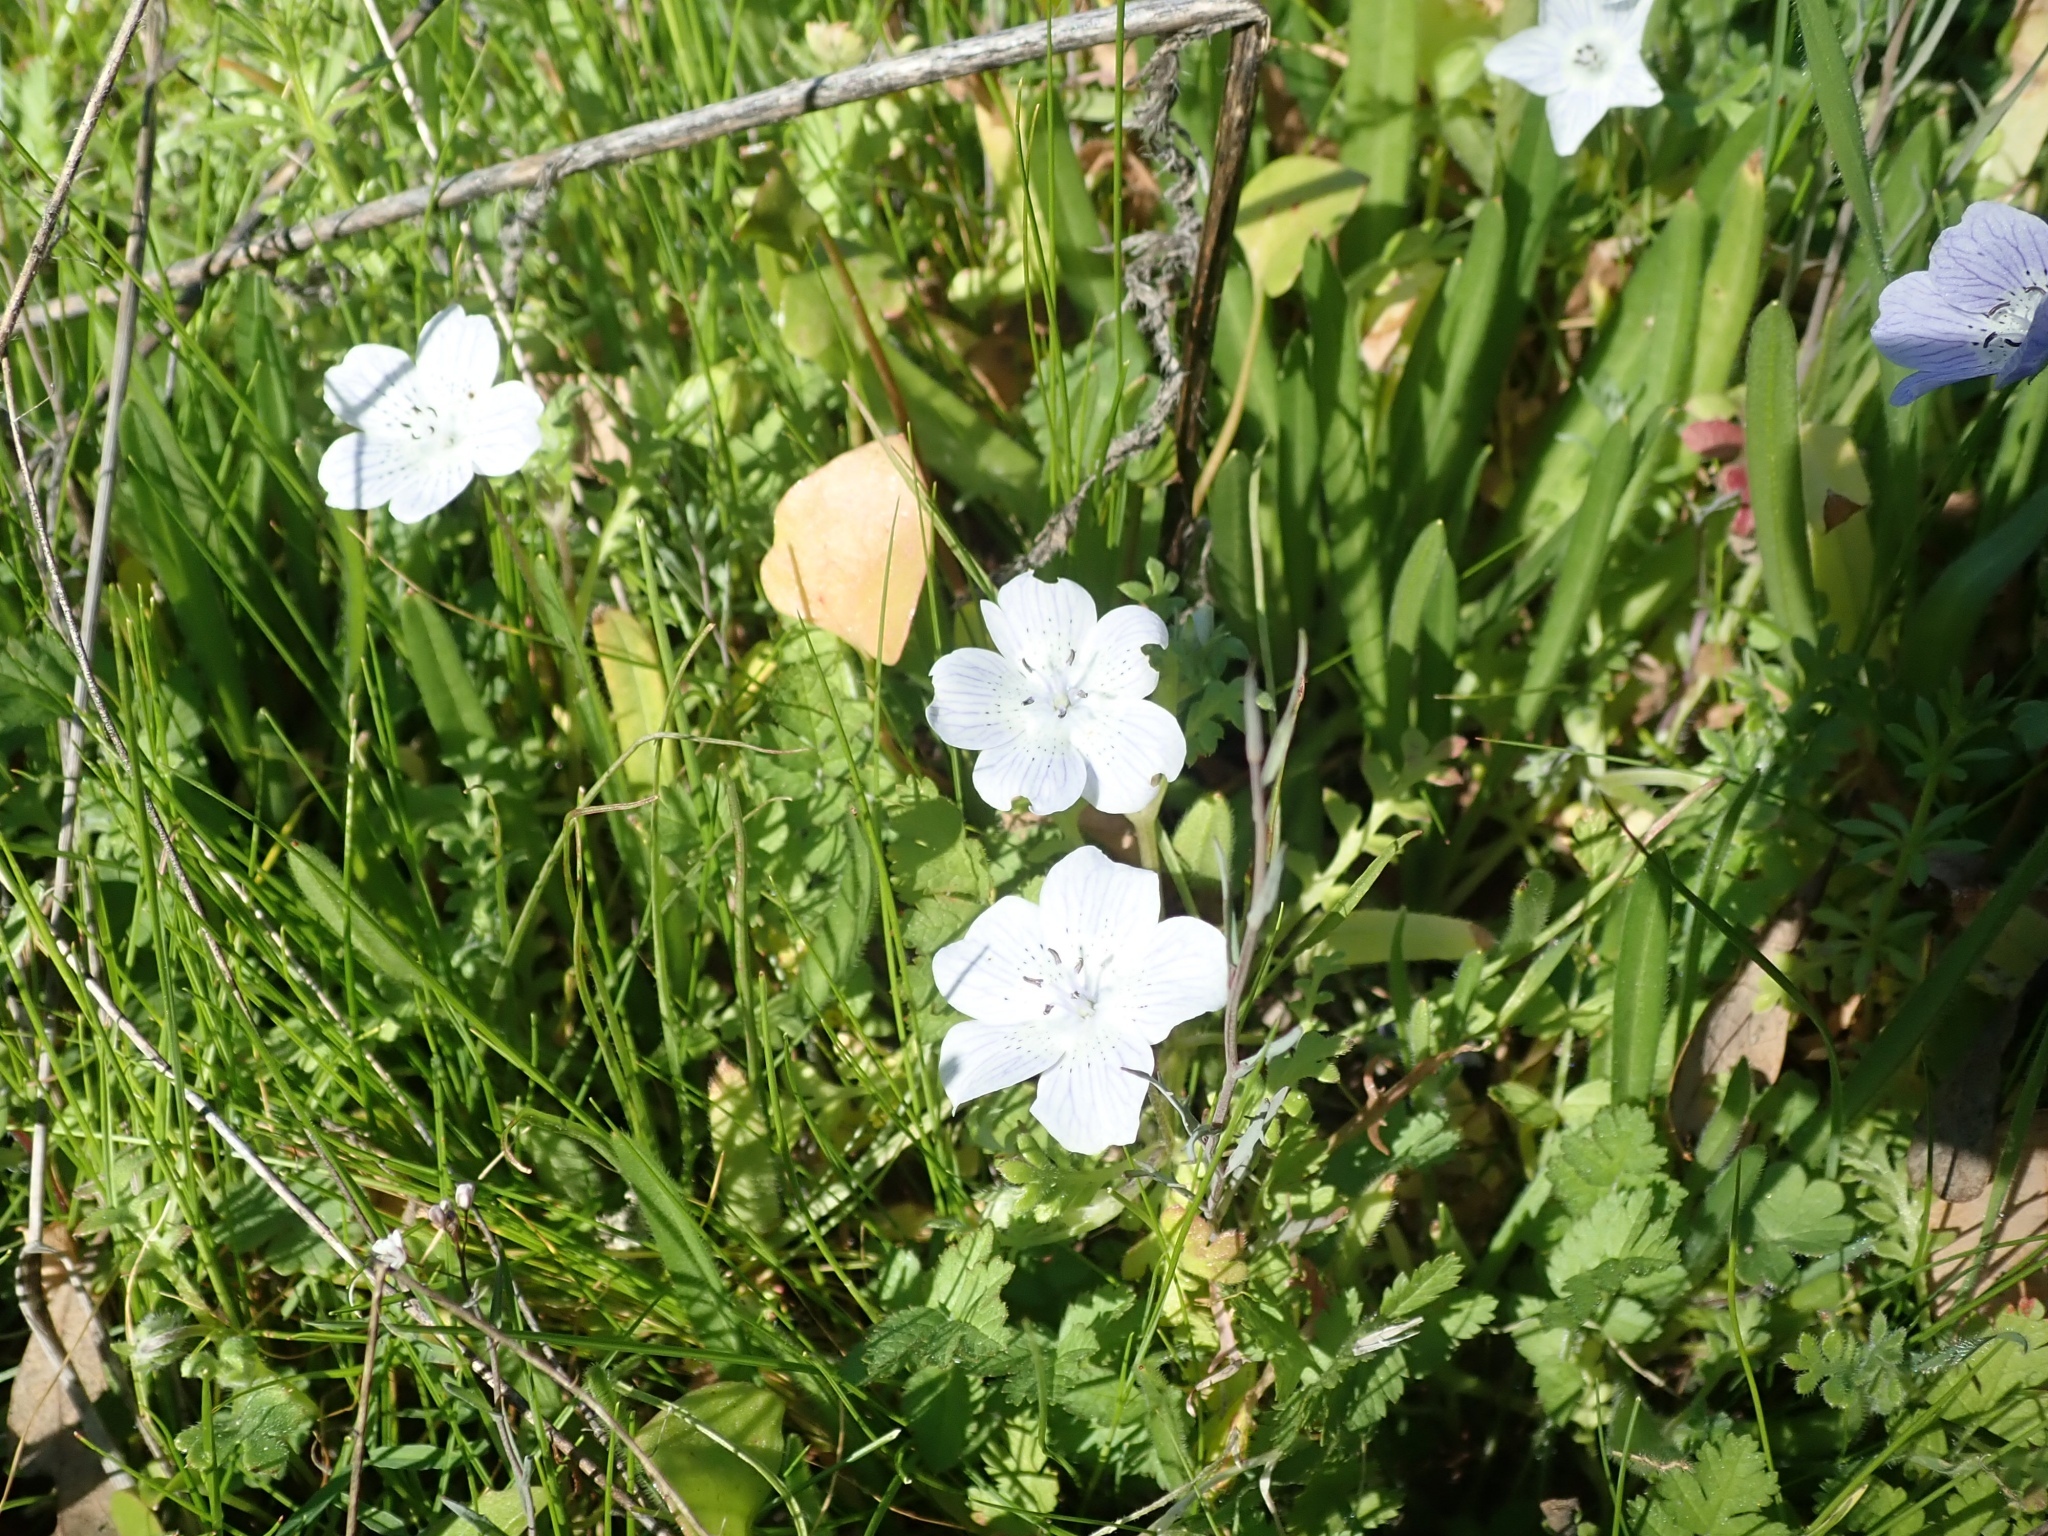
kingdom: Plantae
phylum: Tracheophyta
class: Magnoliopsida
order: Boraginales
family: Hydrophyllaceae
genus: Nemophila
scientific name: Nemophila menziesii
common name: Baby's-blue-eyes
